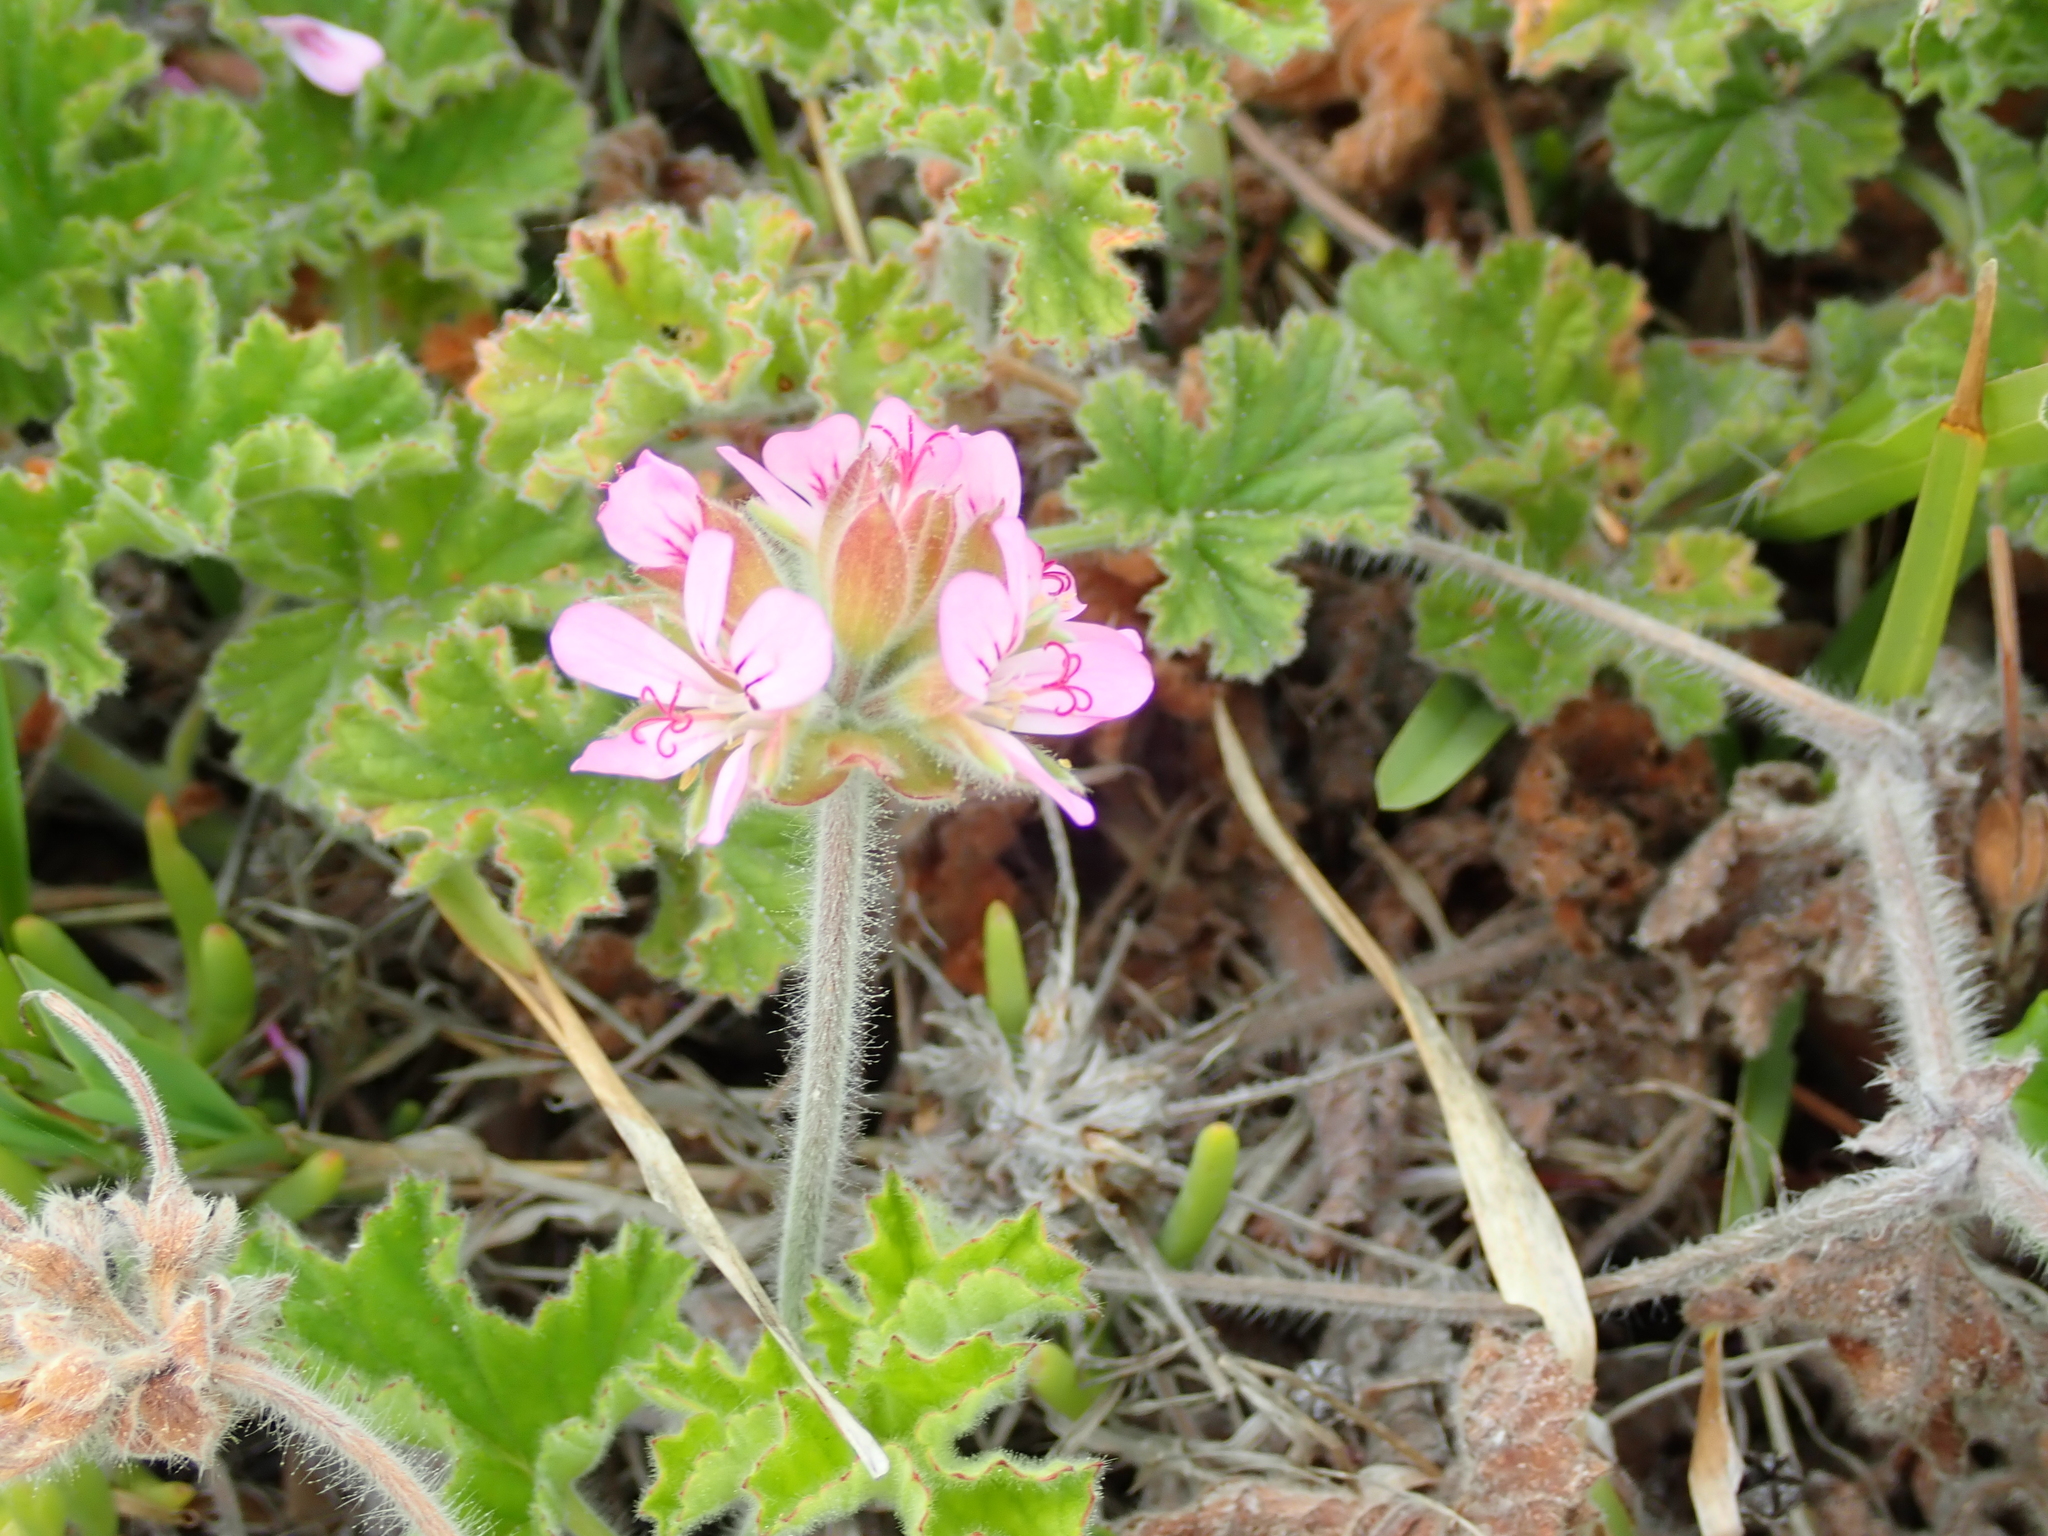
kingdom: Plantae
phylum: Tracheophyta
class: Magnoliopsida
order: Geraniales
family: Geraniaceae
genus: Pelargonium
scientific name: Pelargonium capitatum
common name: Rose scented geranium
